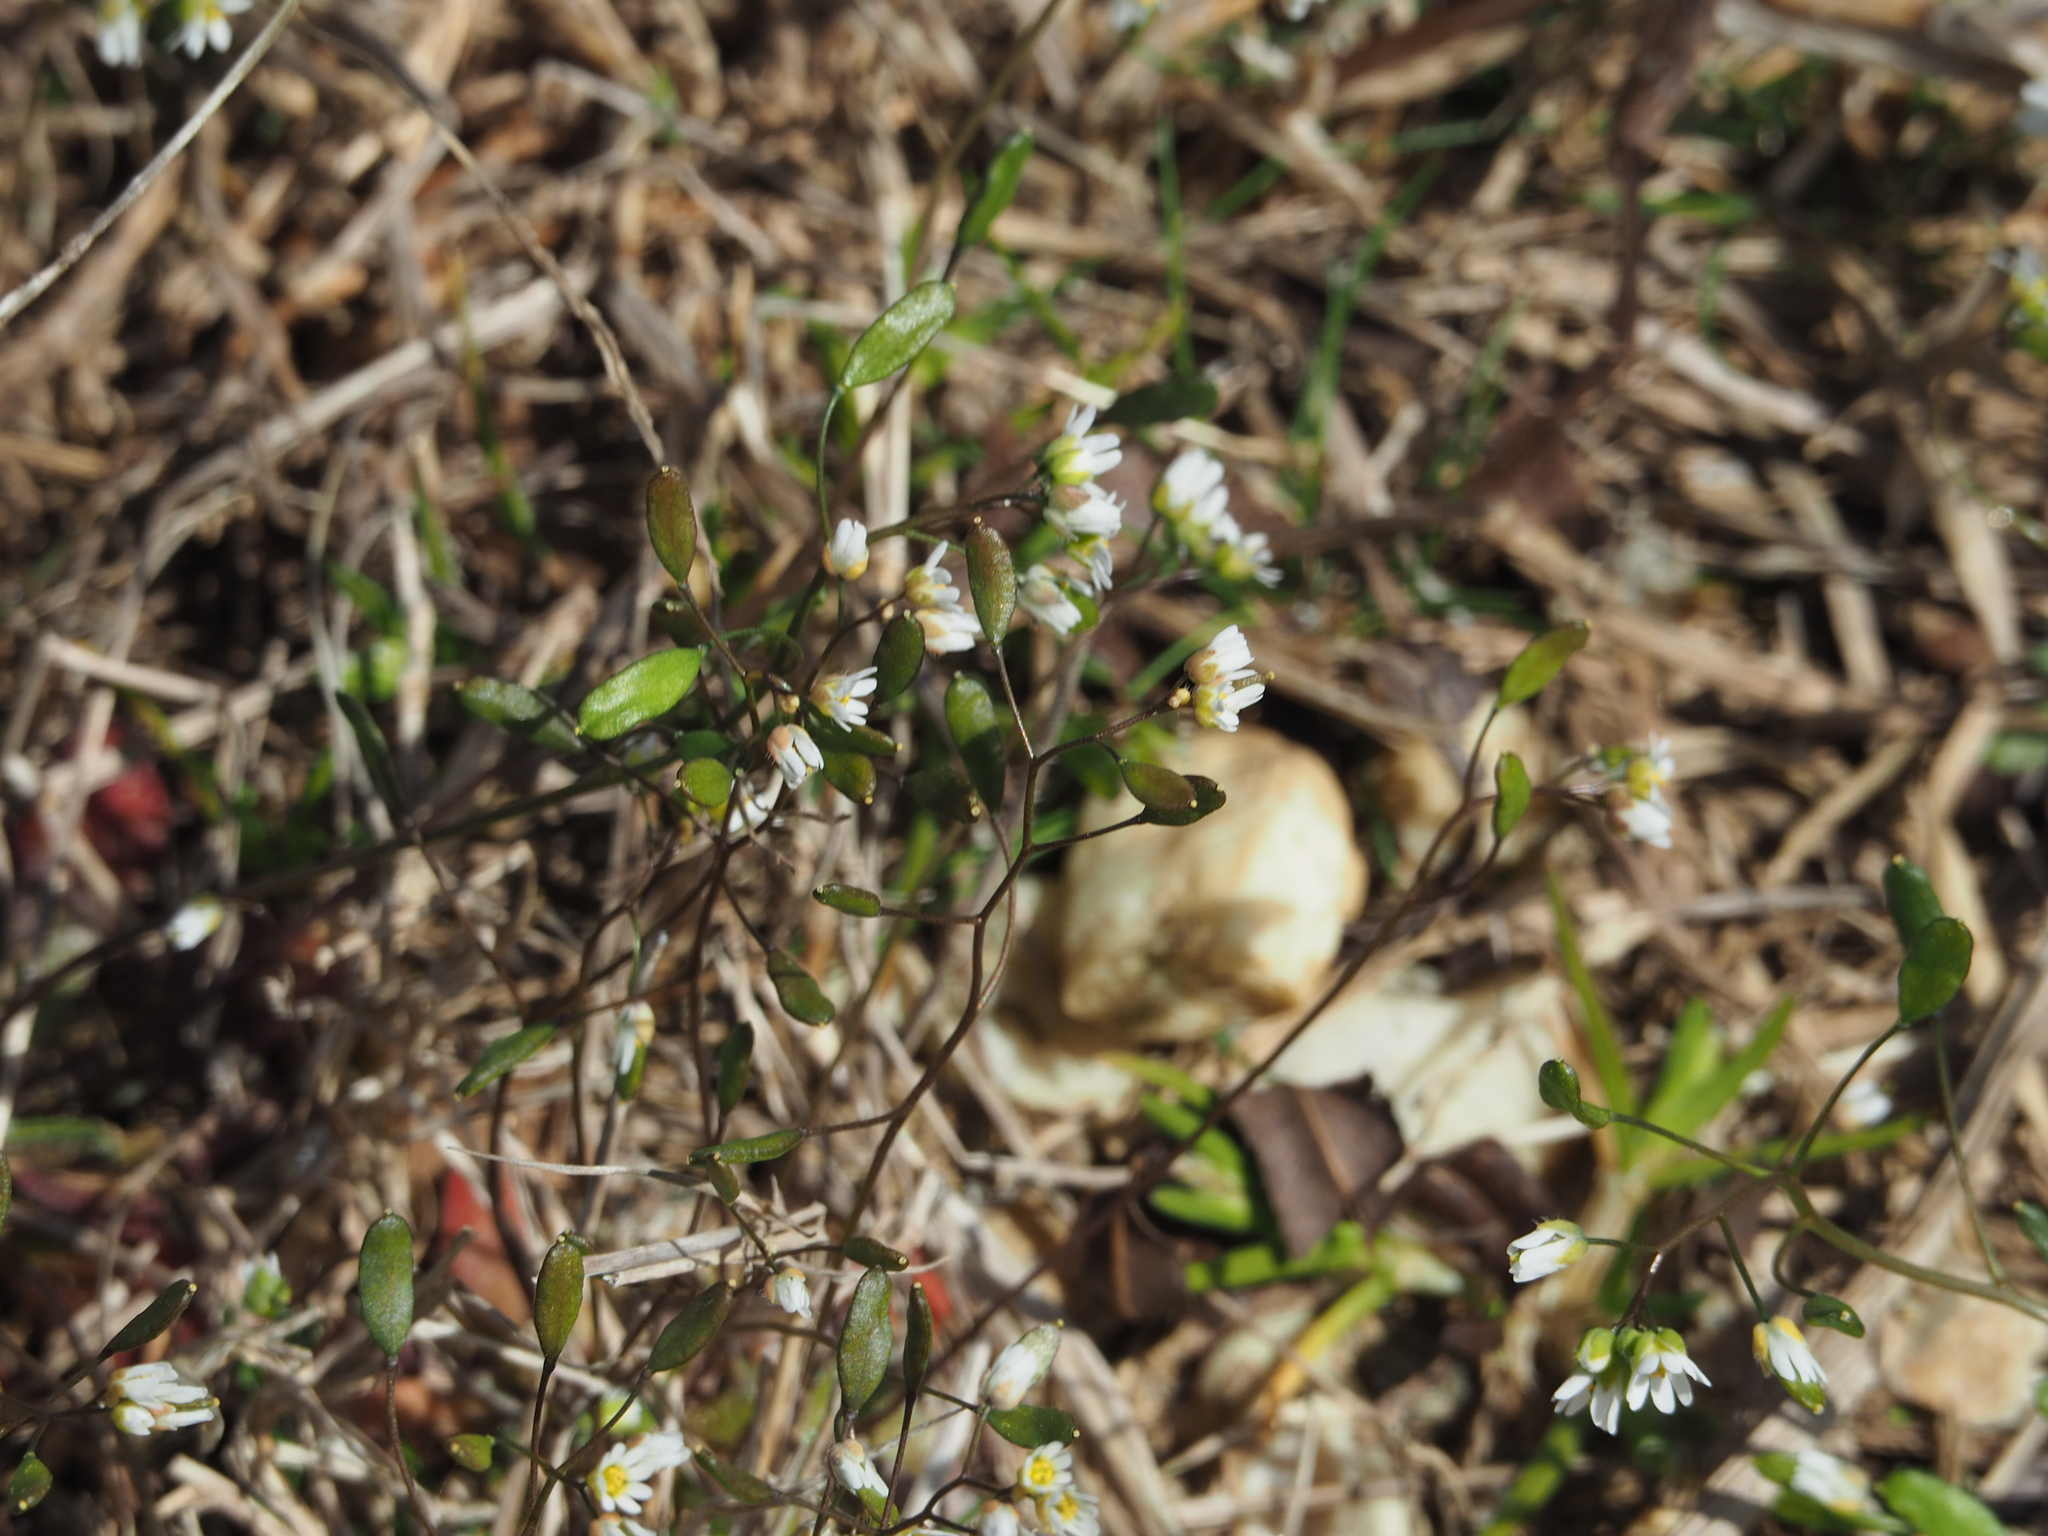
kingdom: Plantae
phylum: Tracheophyta
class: Magnoliopsida
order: Brassicales
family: Brassicaceae
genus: Draba
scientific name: Draba verna
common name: Spring draba
